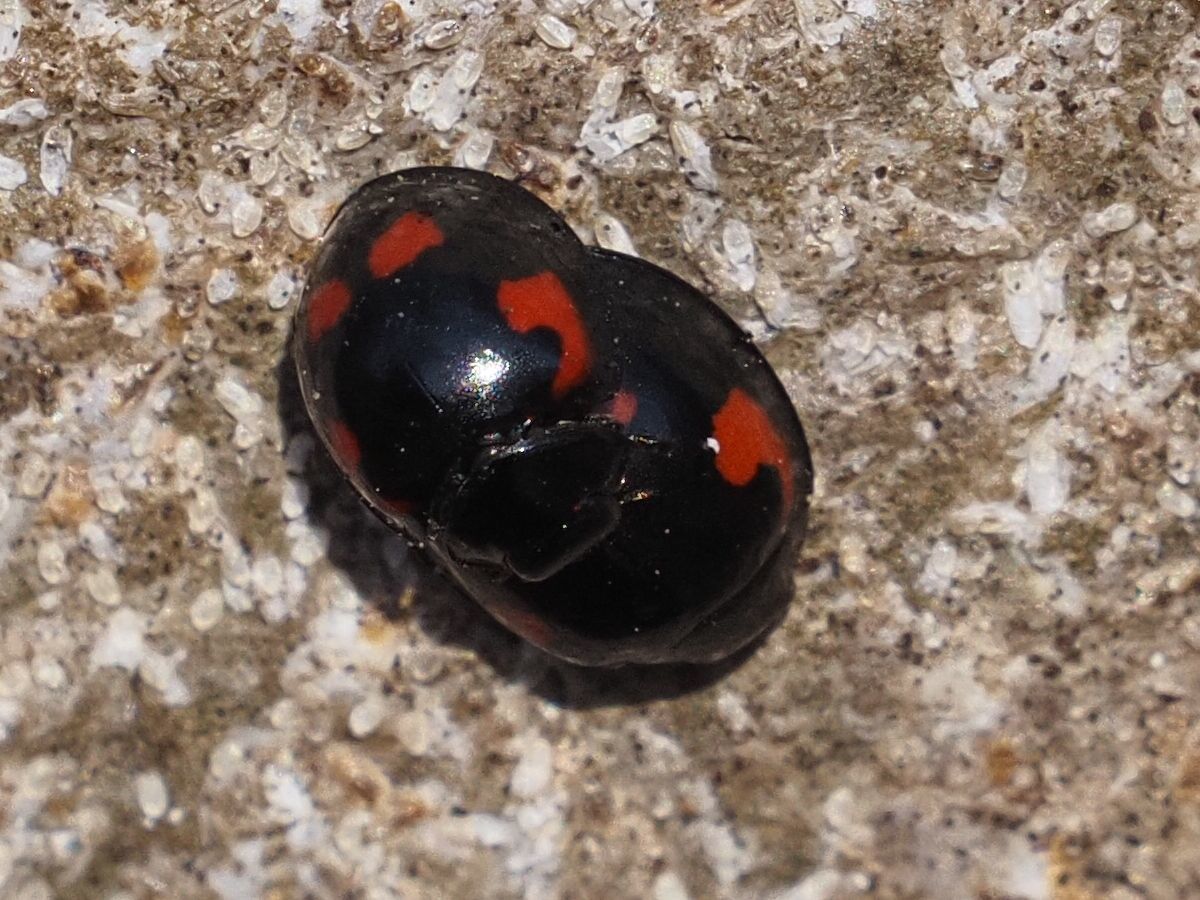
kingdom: Animalia
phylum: Arthropoda
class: Insecta
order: Coleoptera
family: Coccinellidae
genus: Brumus
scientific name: Brumus quadripustulatus
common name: Ladybird beetle
